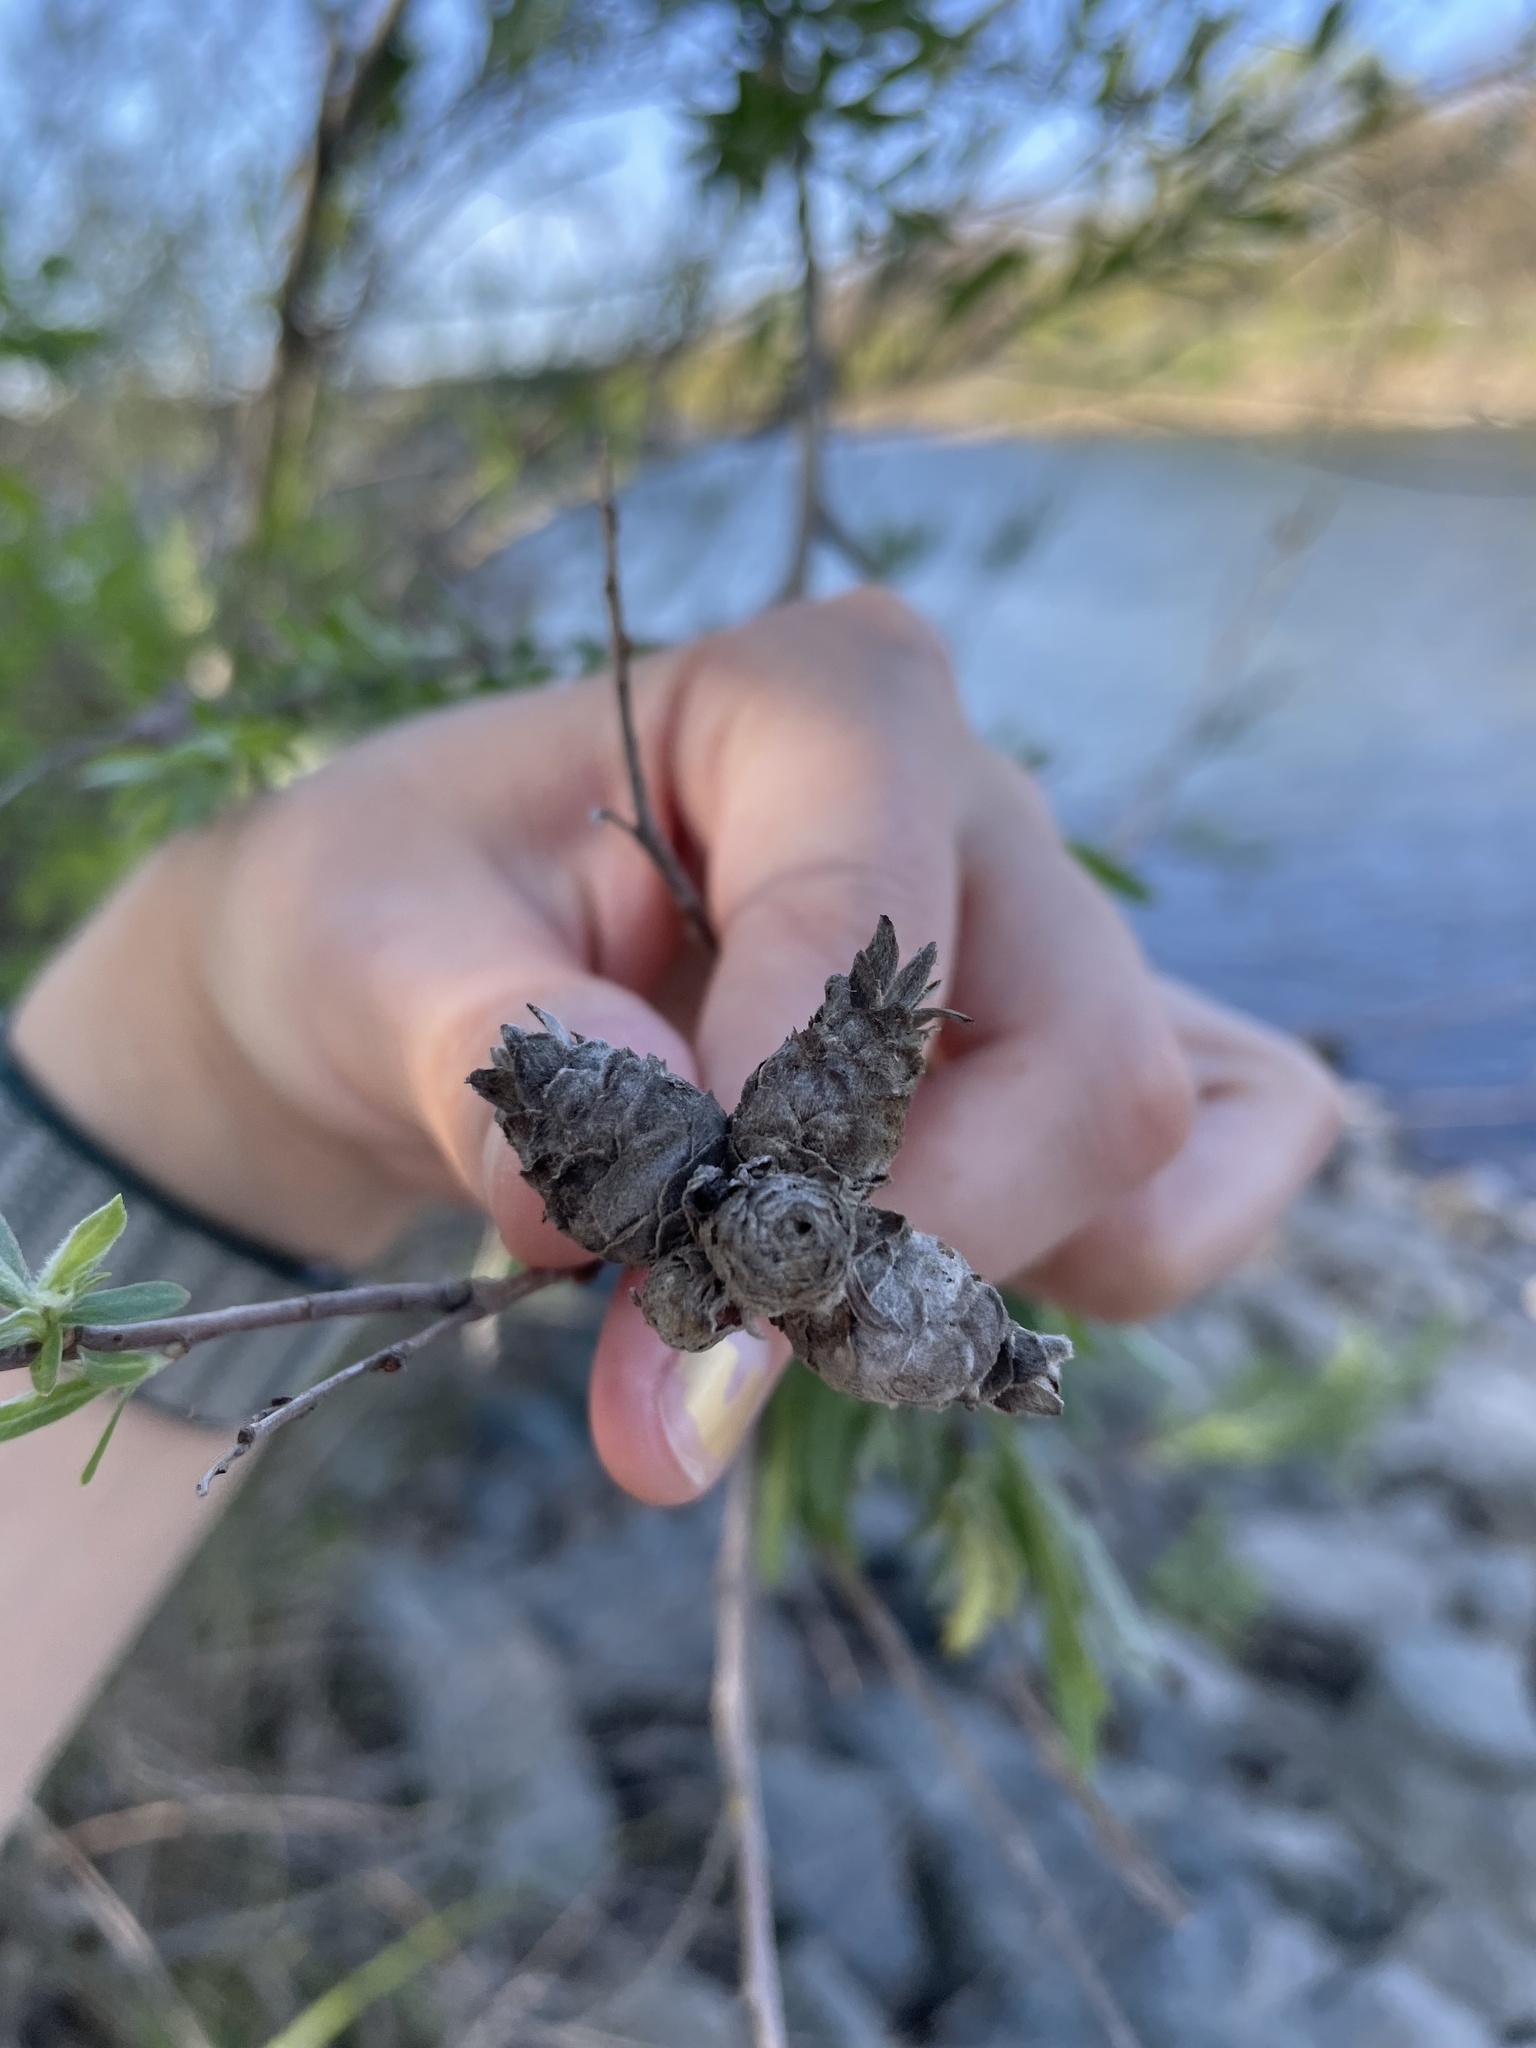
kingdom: Animalia
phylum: Arthropoda
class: Insecta
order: Diptera
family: Cecidomyiidae
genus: Rabdophaga
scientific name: Rabdophaga strobiloides
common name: Willow pinecone gall midge
